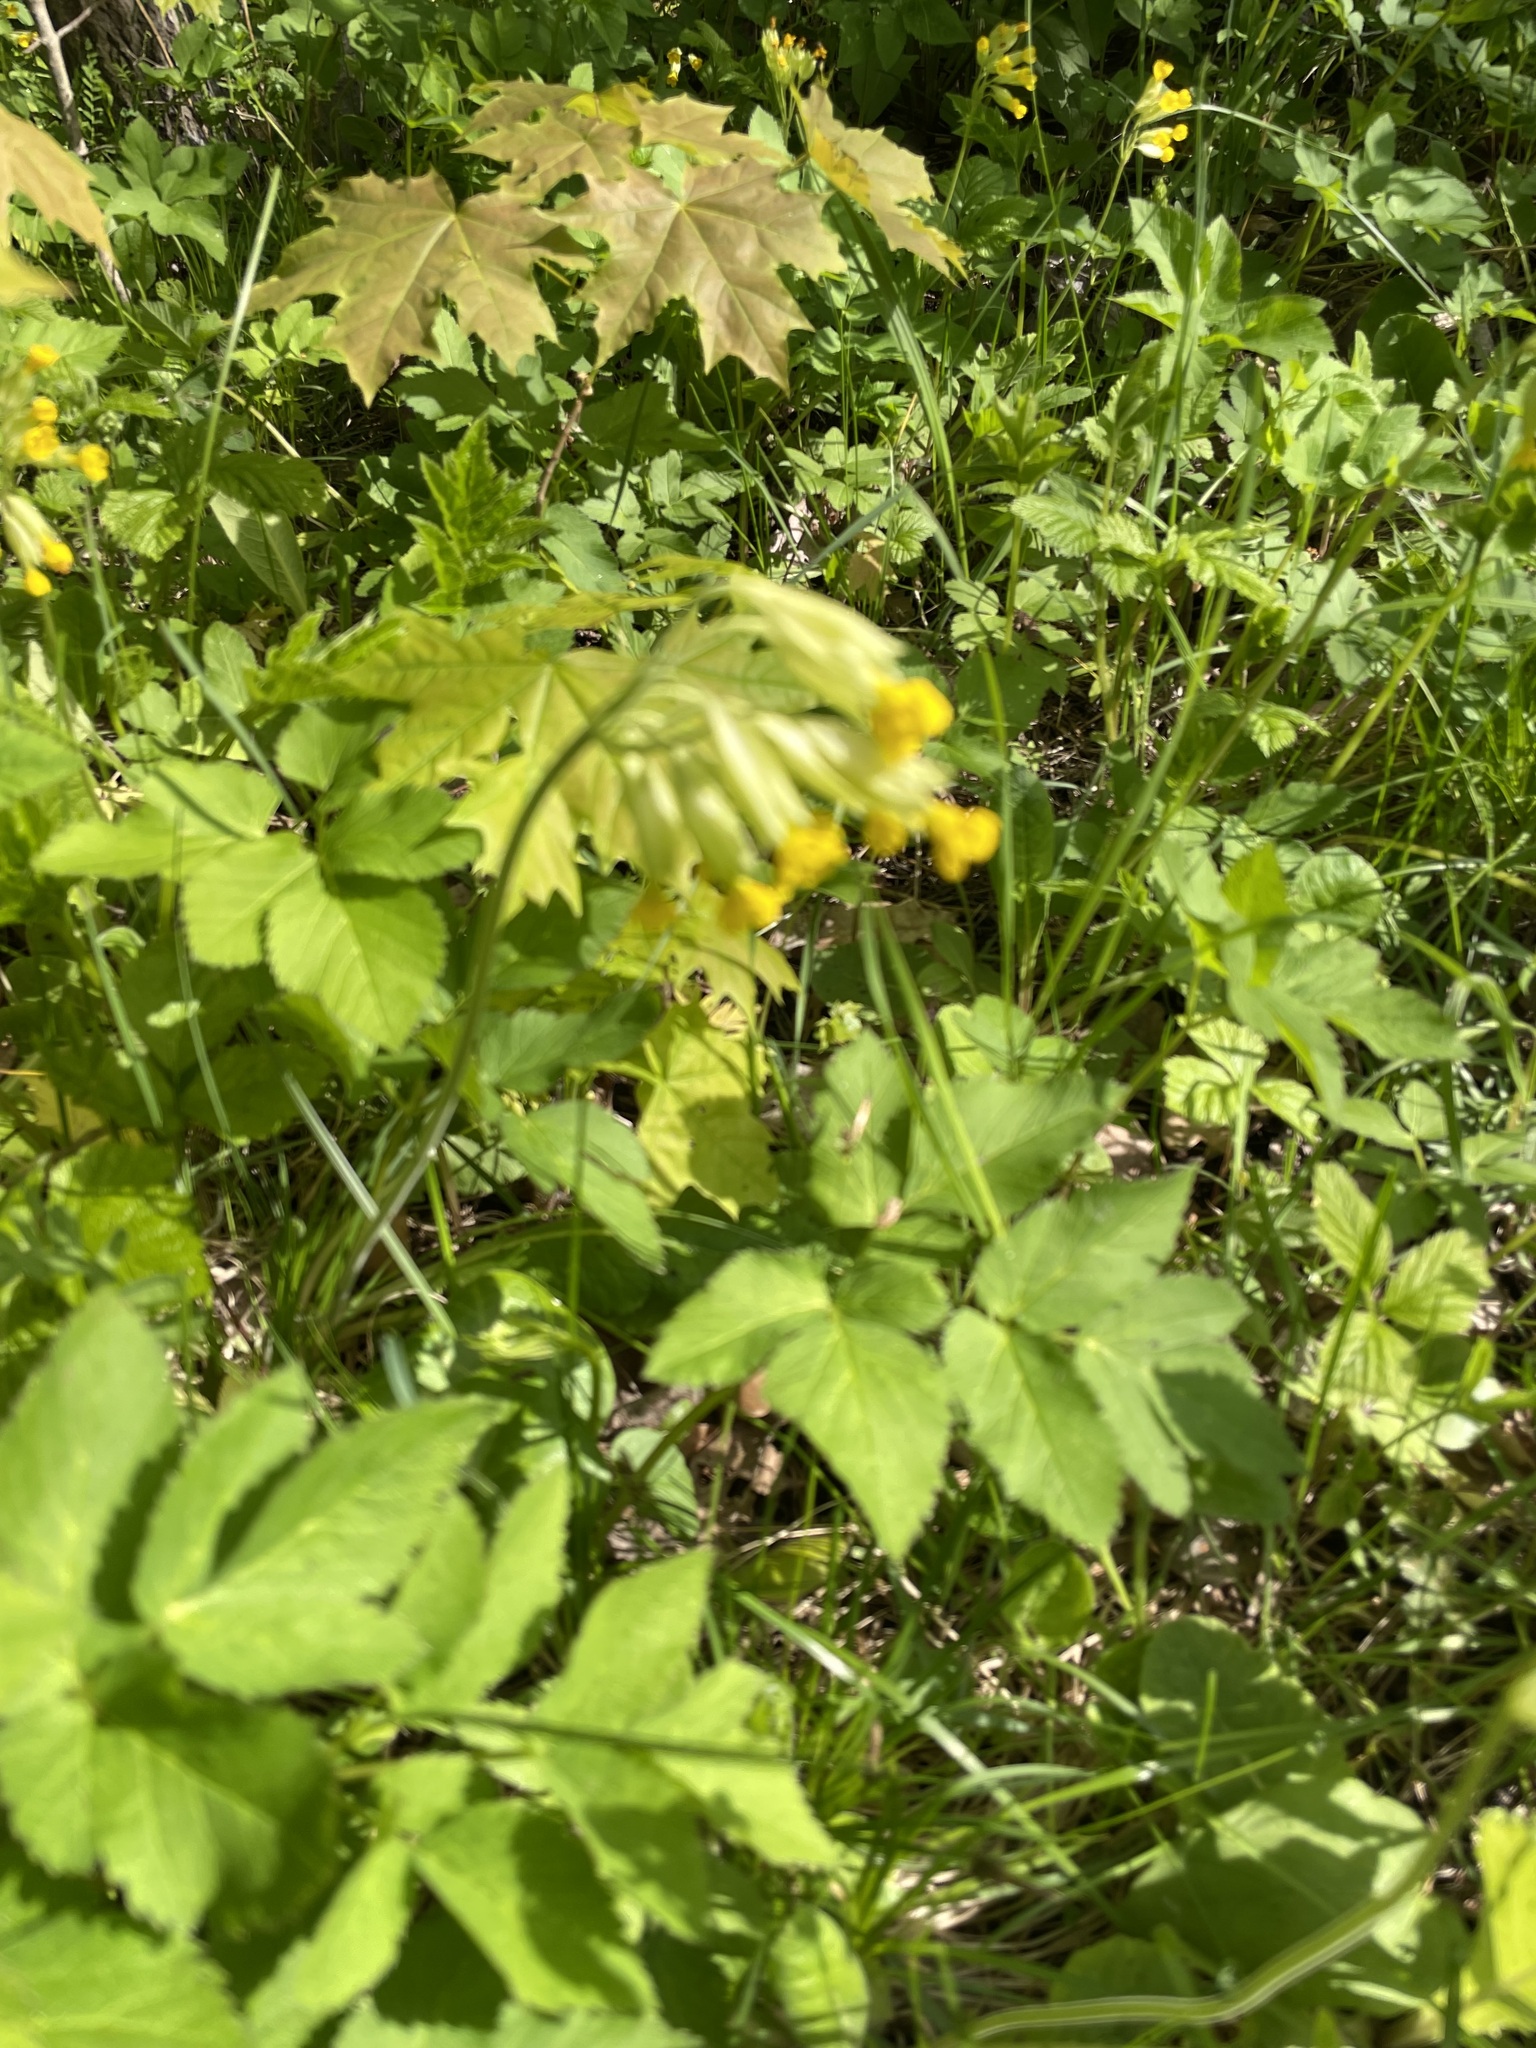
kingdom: Plantae
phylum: Tracheophyta
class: Magnoliopsida
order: Ericales
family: Primulaceae
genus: Primula
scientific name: Primula veris
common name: Cowslip
